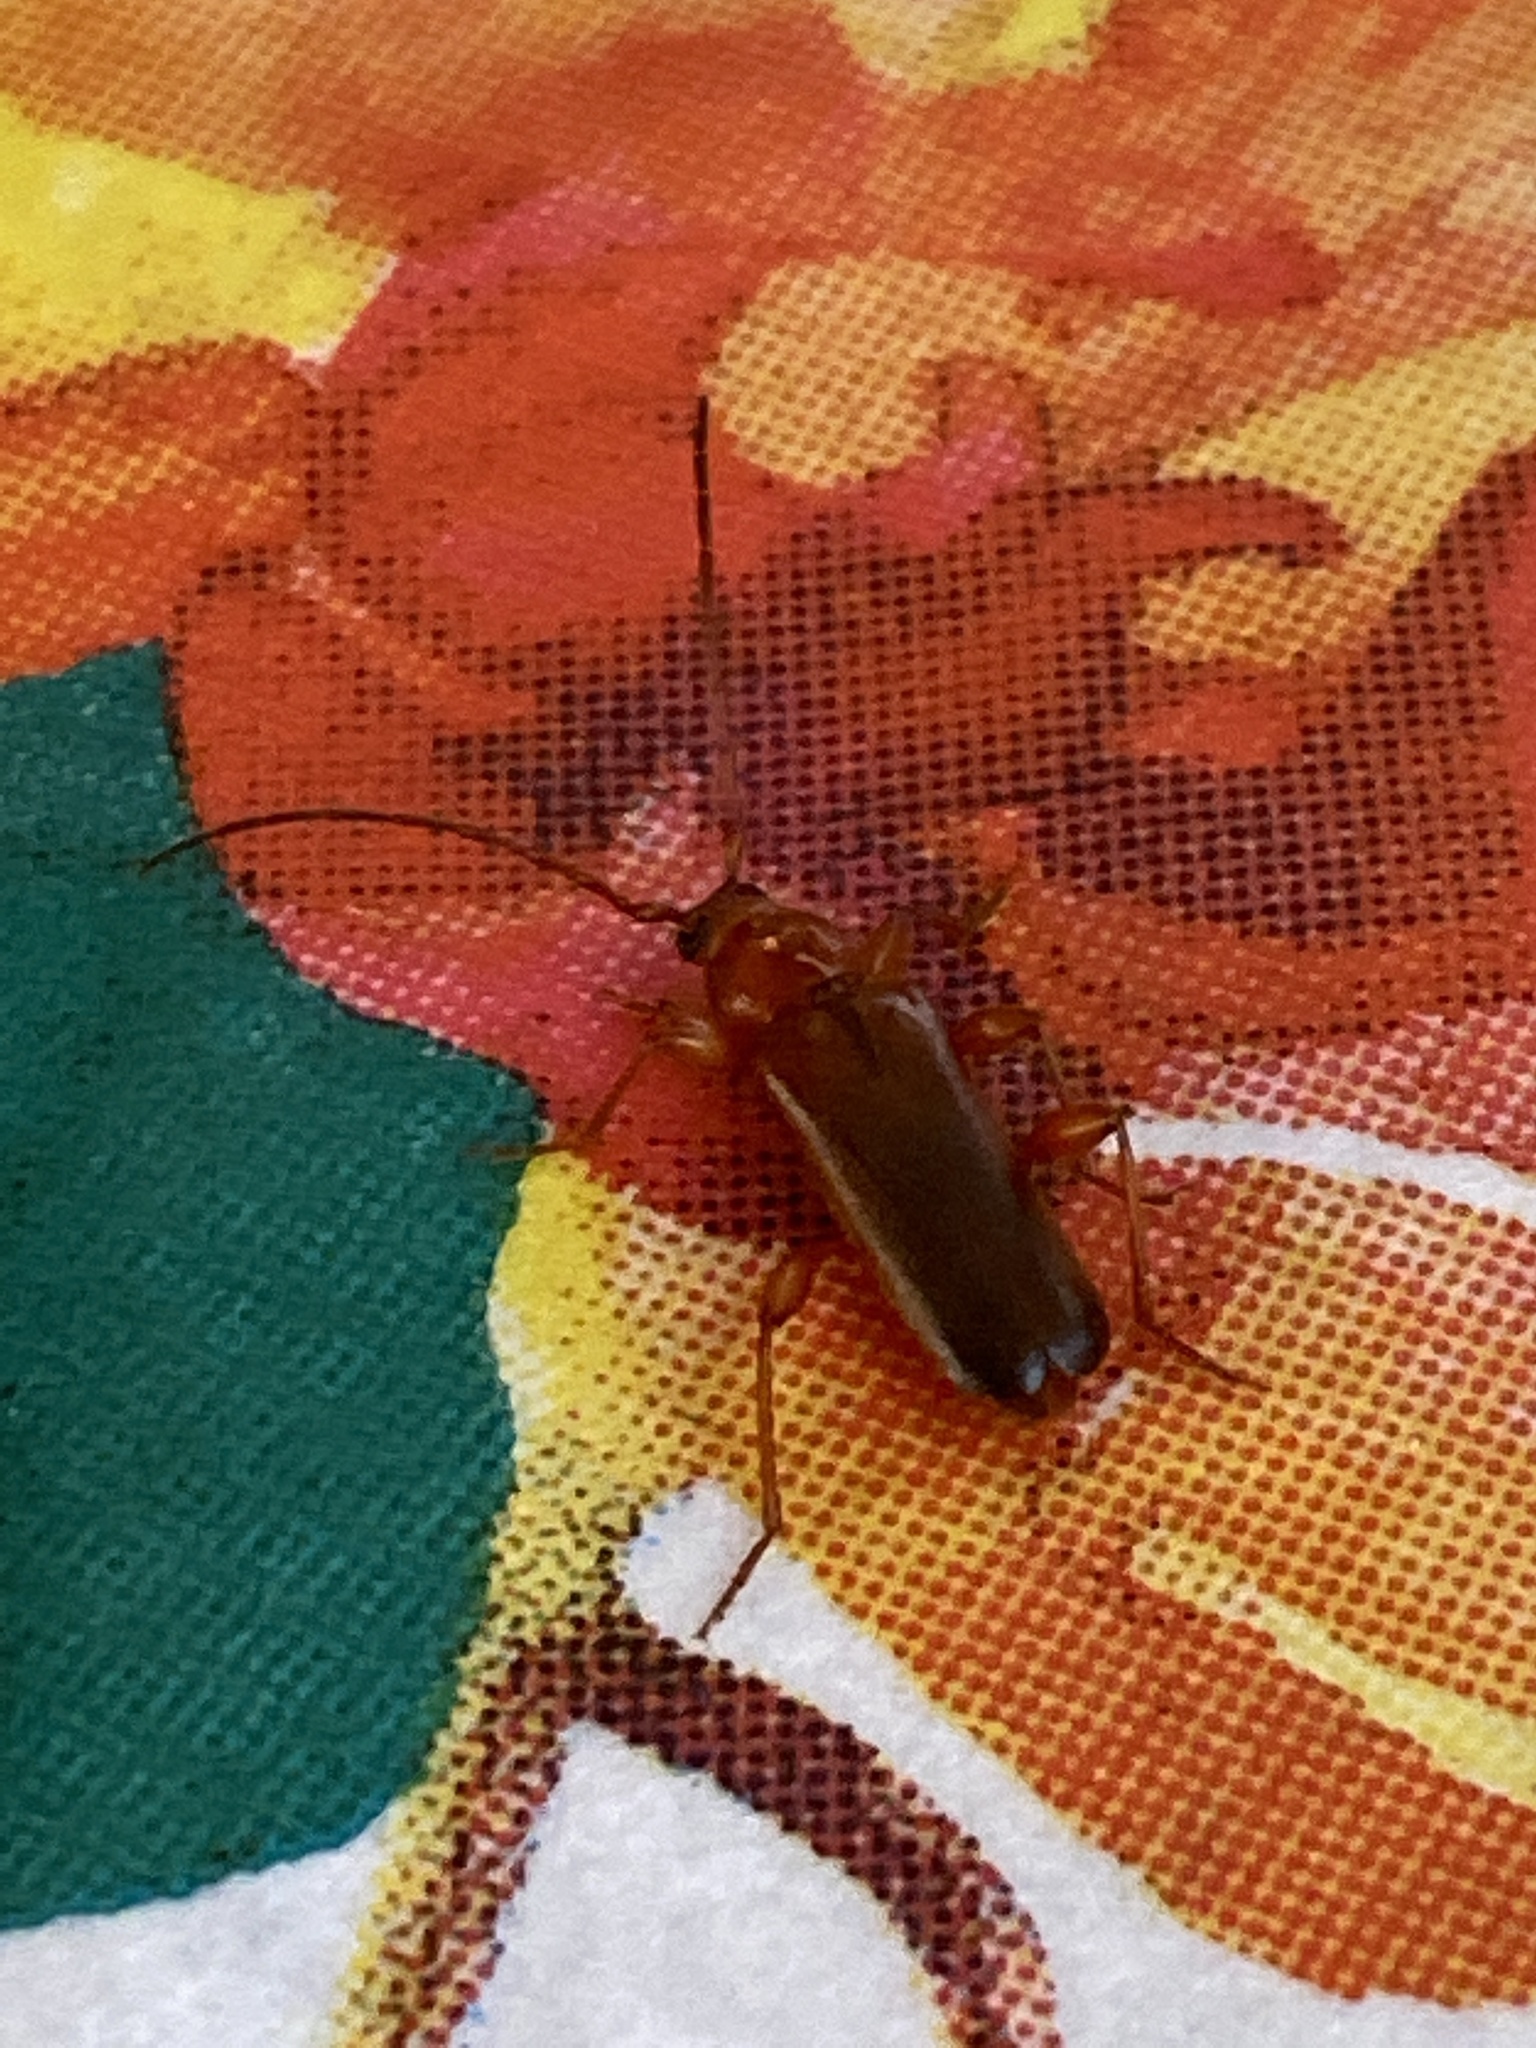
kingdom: Animalia
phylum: Arthropoda
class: Insecta
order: Coleoptera
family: Cerambycidae
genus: Phymatodes
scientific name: Phymatodes testaceus
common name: Long-horned beetle
